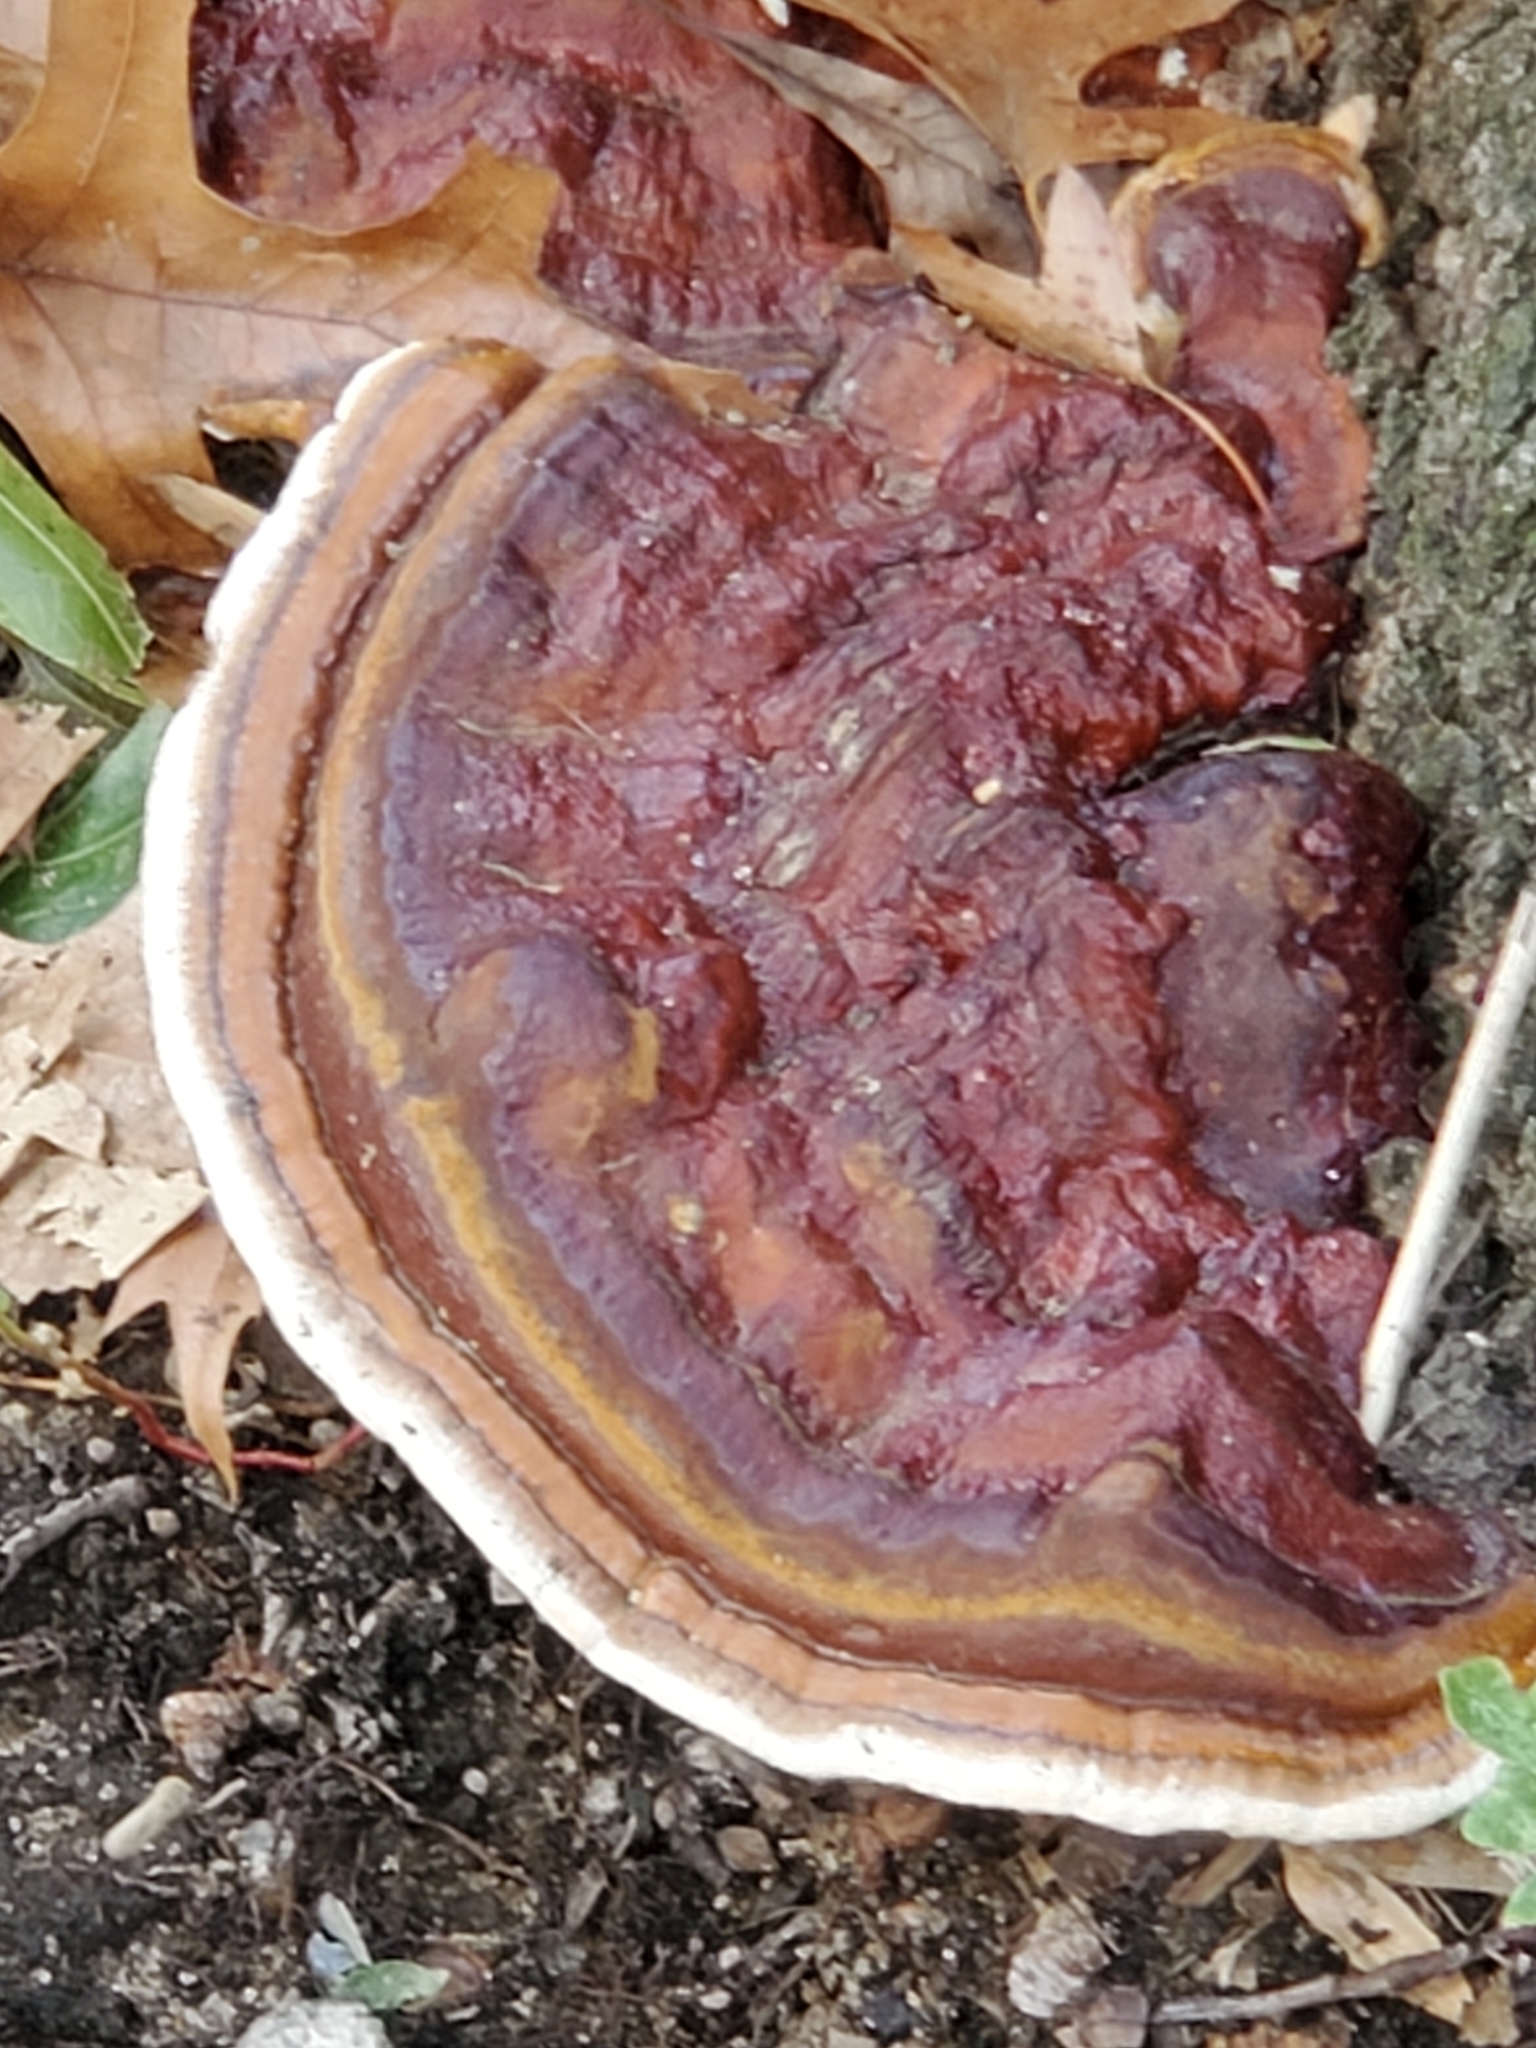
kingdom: Fungi
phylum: Basidiomycota
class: Agaricomycetes
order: Polyporales
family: Polyporaceae
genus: Ganoderma
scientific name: Ganoderma resinaceum
